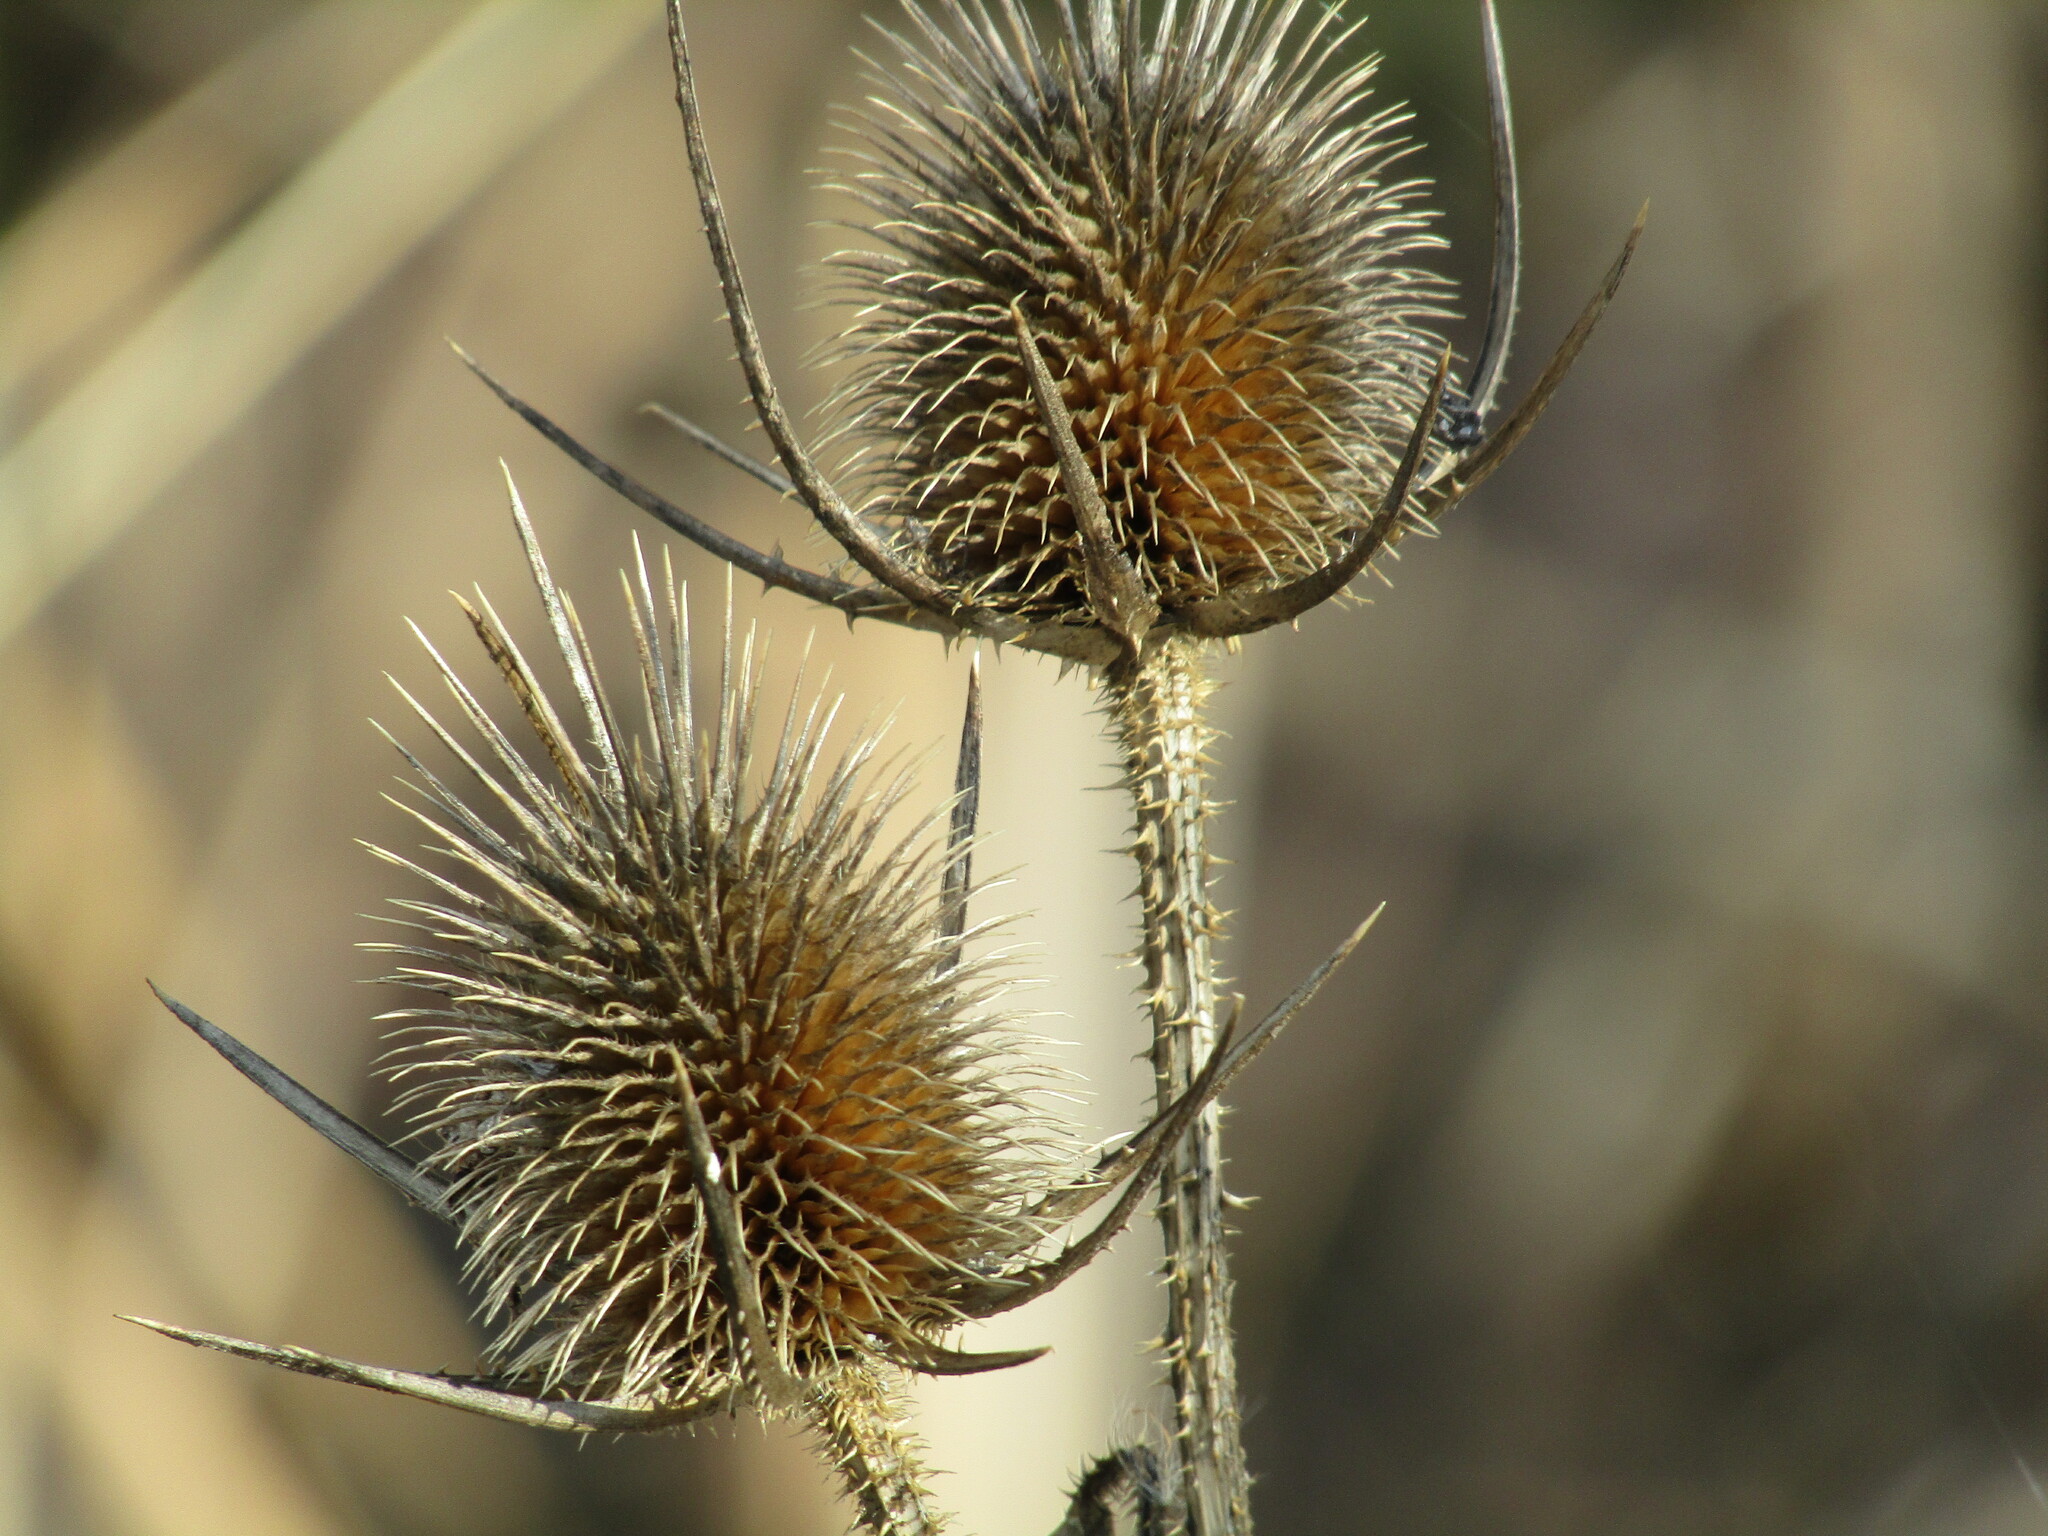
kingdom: Plantae
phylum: Tracheophyta
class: Magnoliopsida
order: Dipsacales
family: Caprifoliaceae
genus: Dipsacus
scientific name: Dipsacus laciniatus
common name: Cut-leaved teasel
